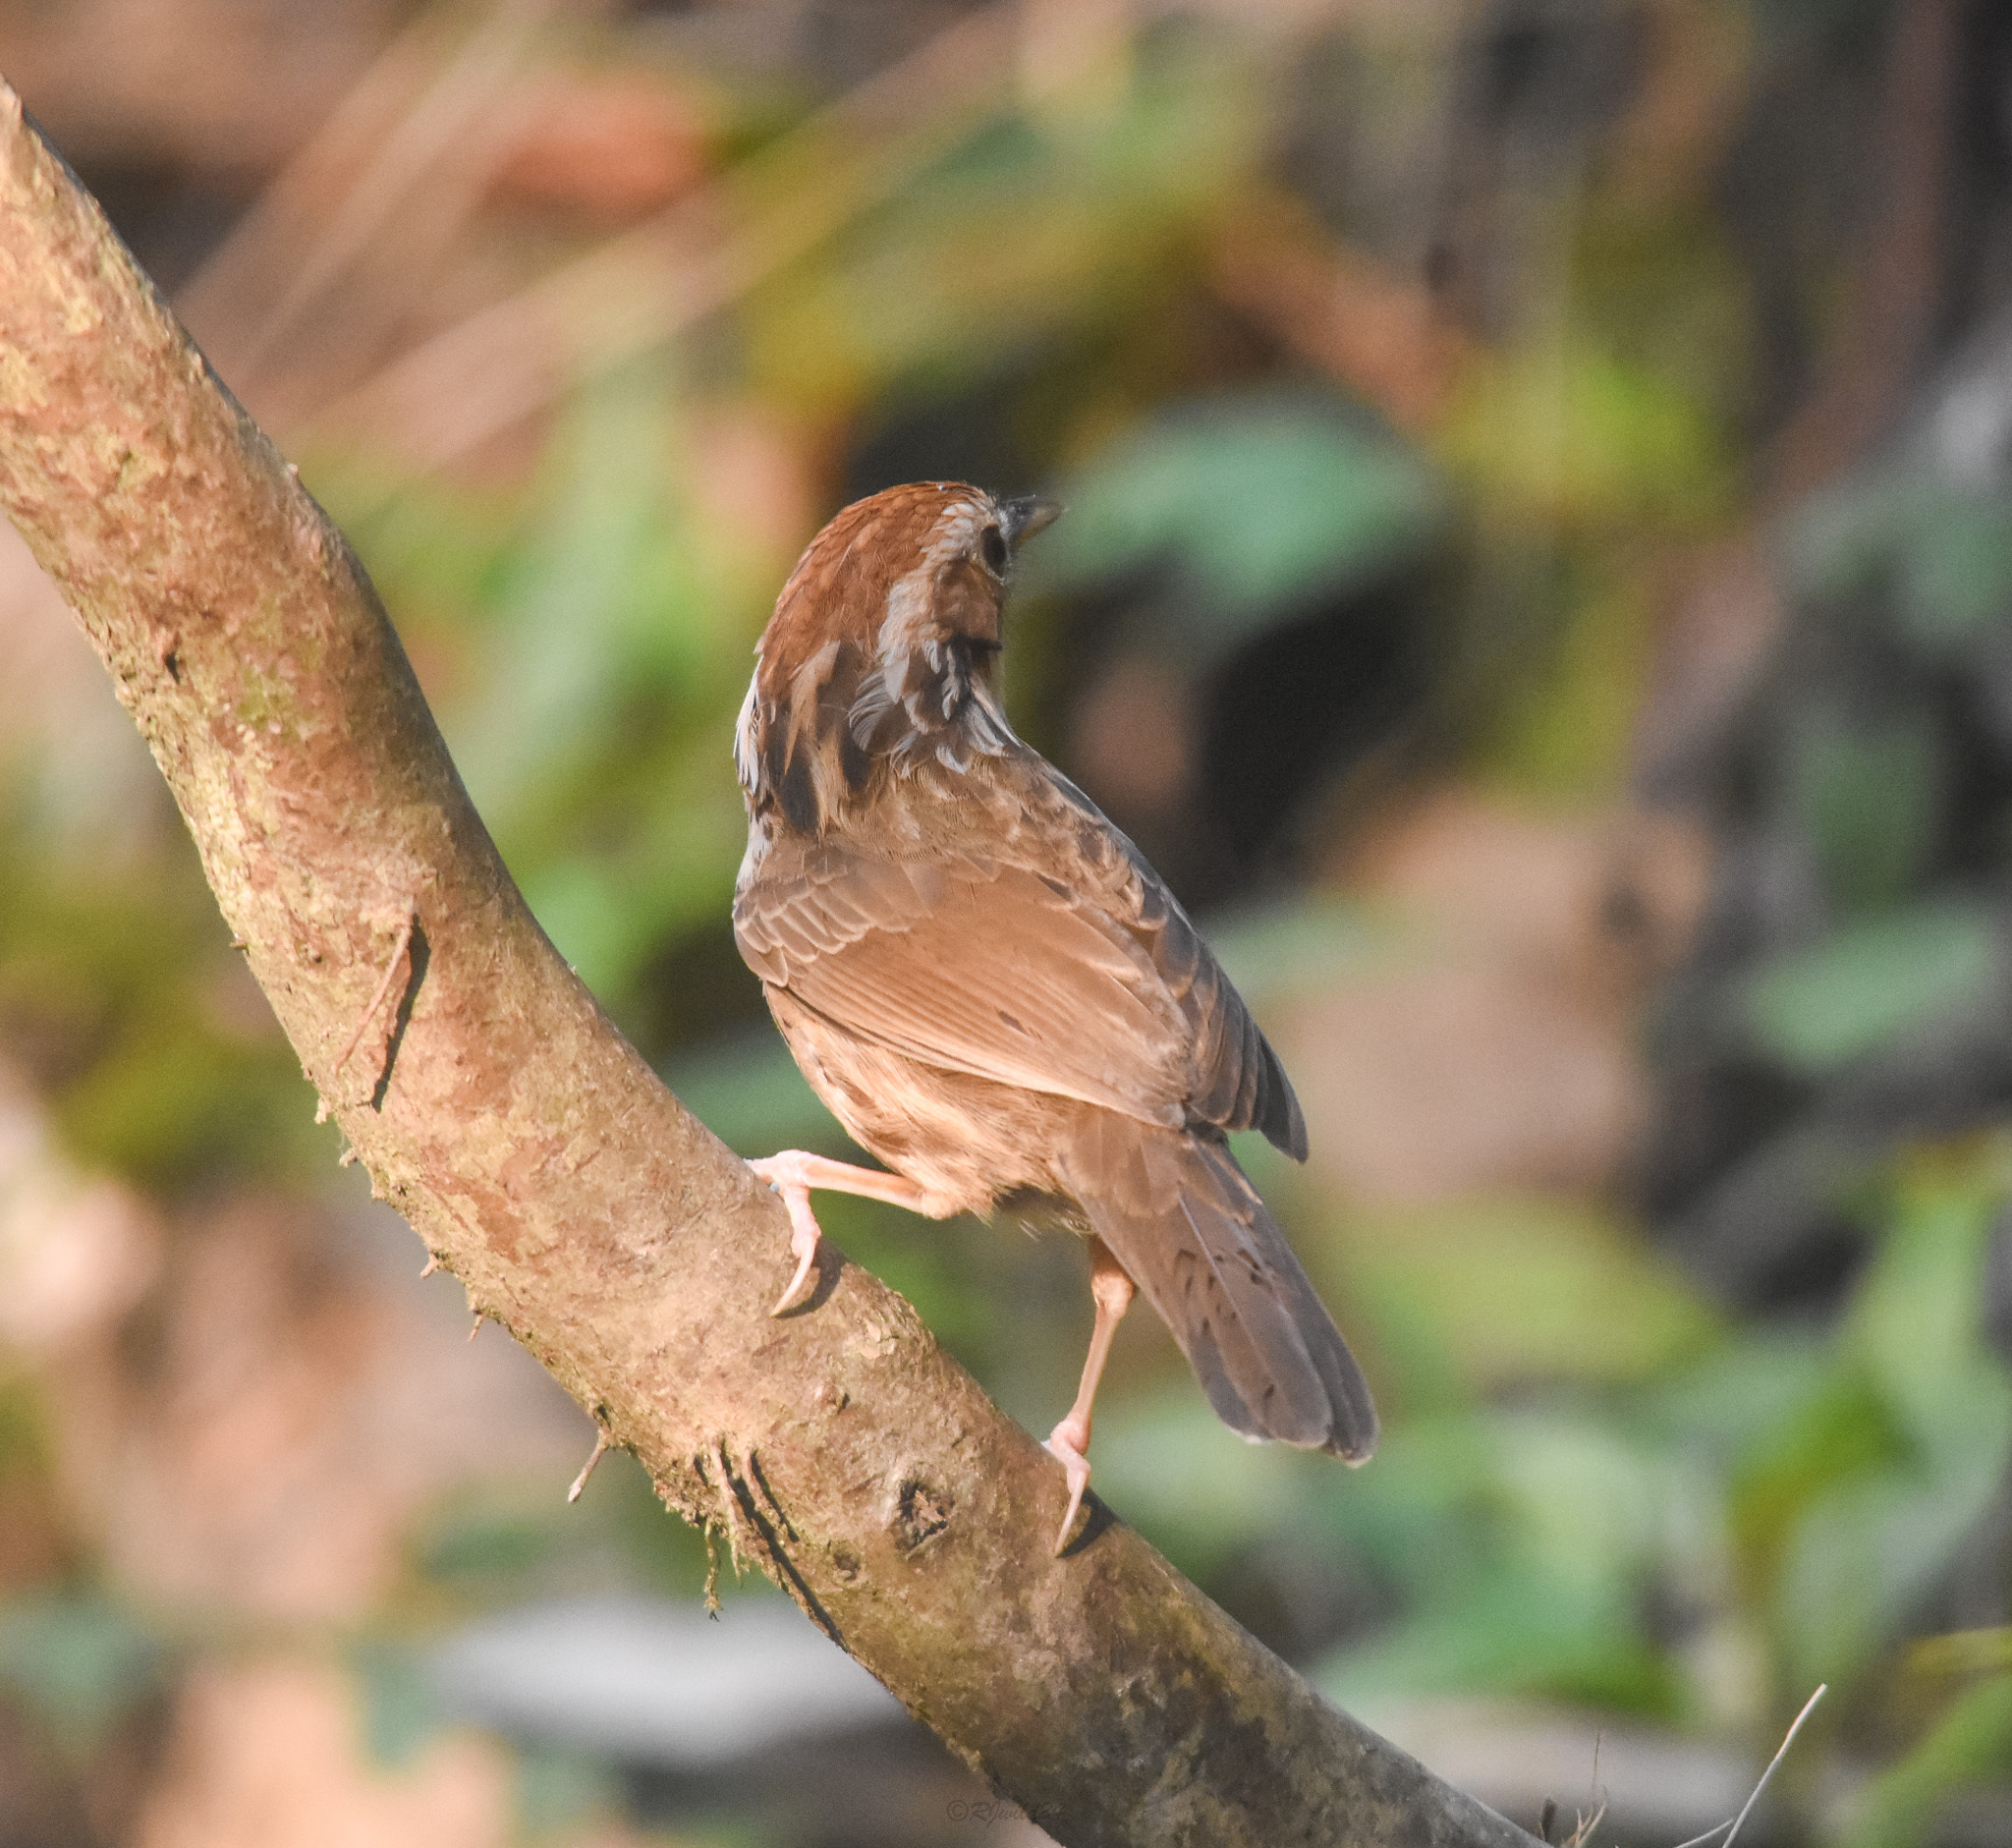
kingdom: Animalia
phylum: Chordata
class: Aves
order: Passeriformes
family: Pellorneidae
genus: Pellorneum
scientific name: Pellorneum ruficeps
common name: Puff-throated babbler
